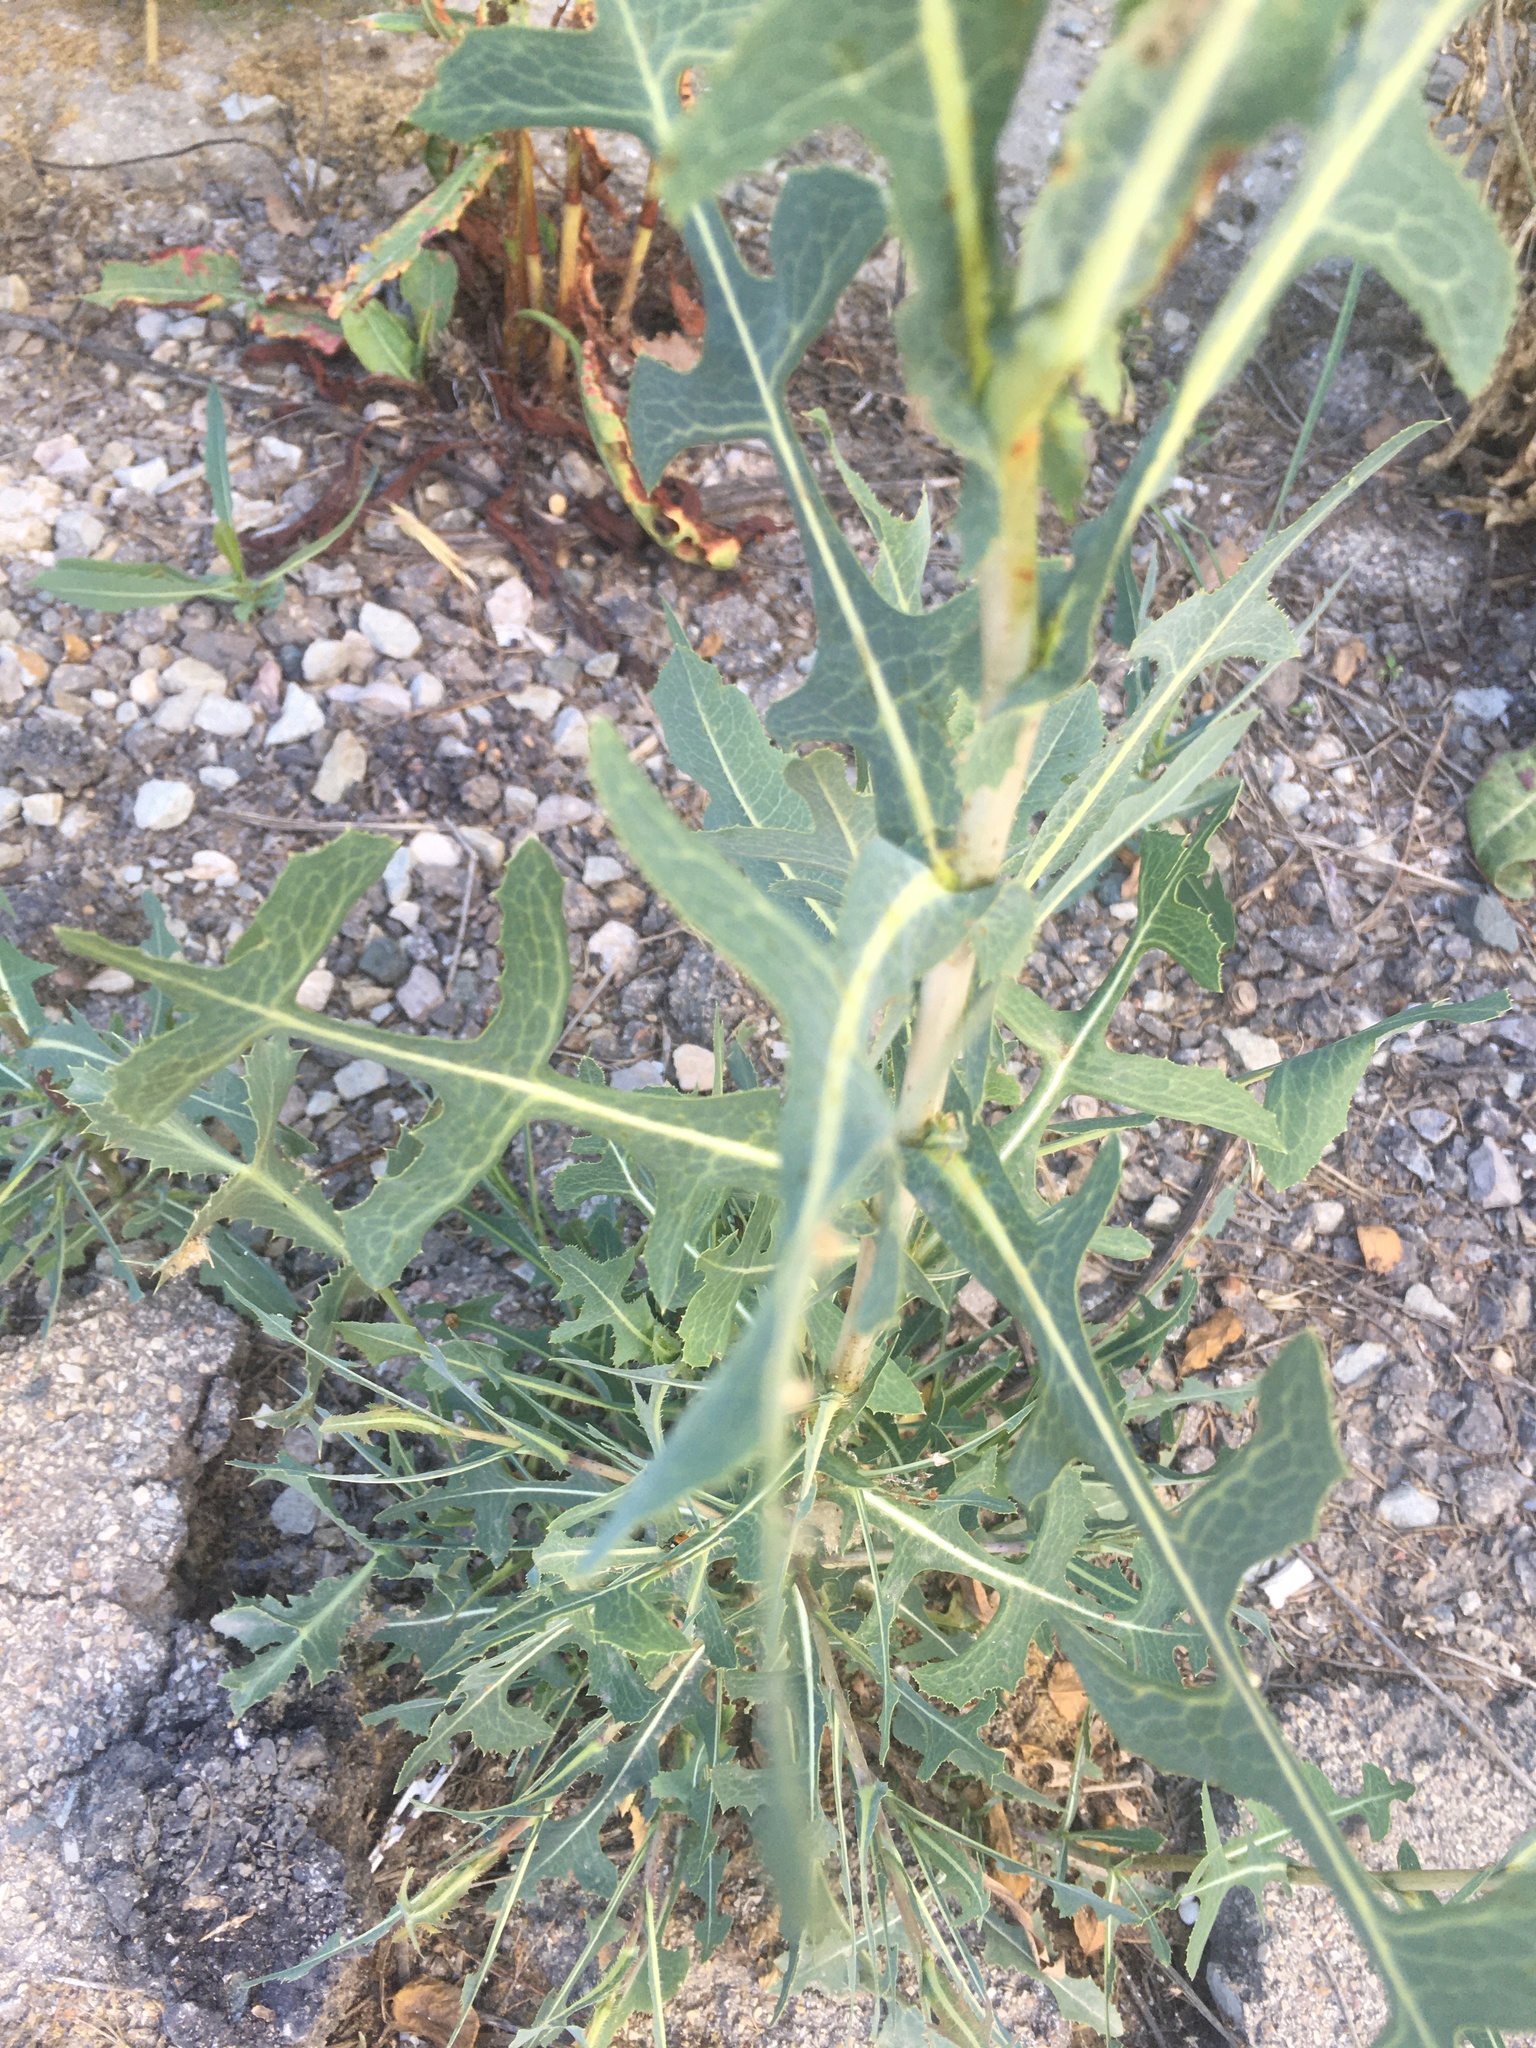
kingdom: Plantae
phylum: Tracheophyta
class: Magnoliopsida
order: Asterales
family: Asteraceae
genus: Lactuca
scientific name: Lactuca serriola
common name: Prickly lettuce
